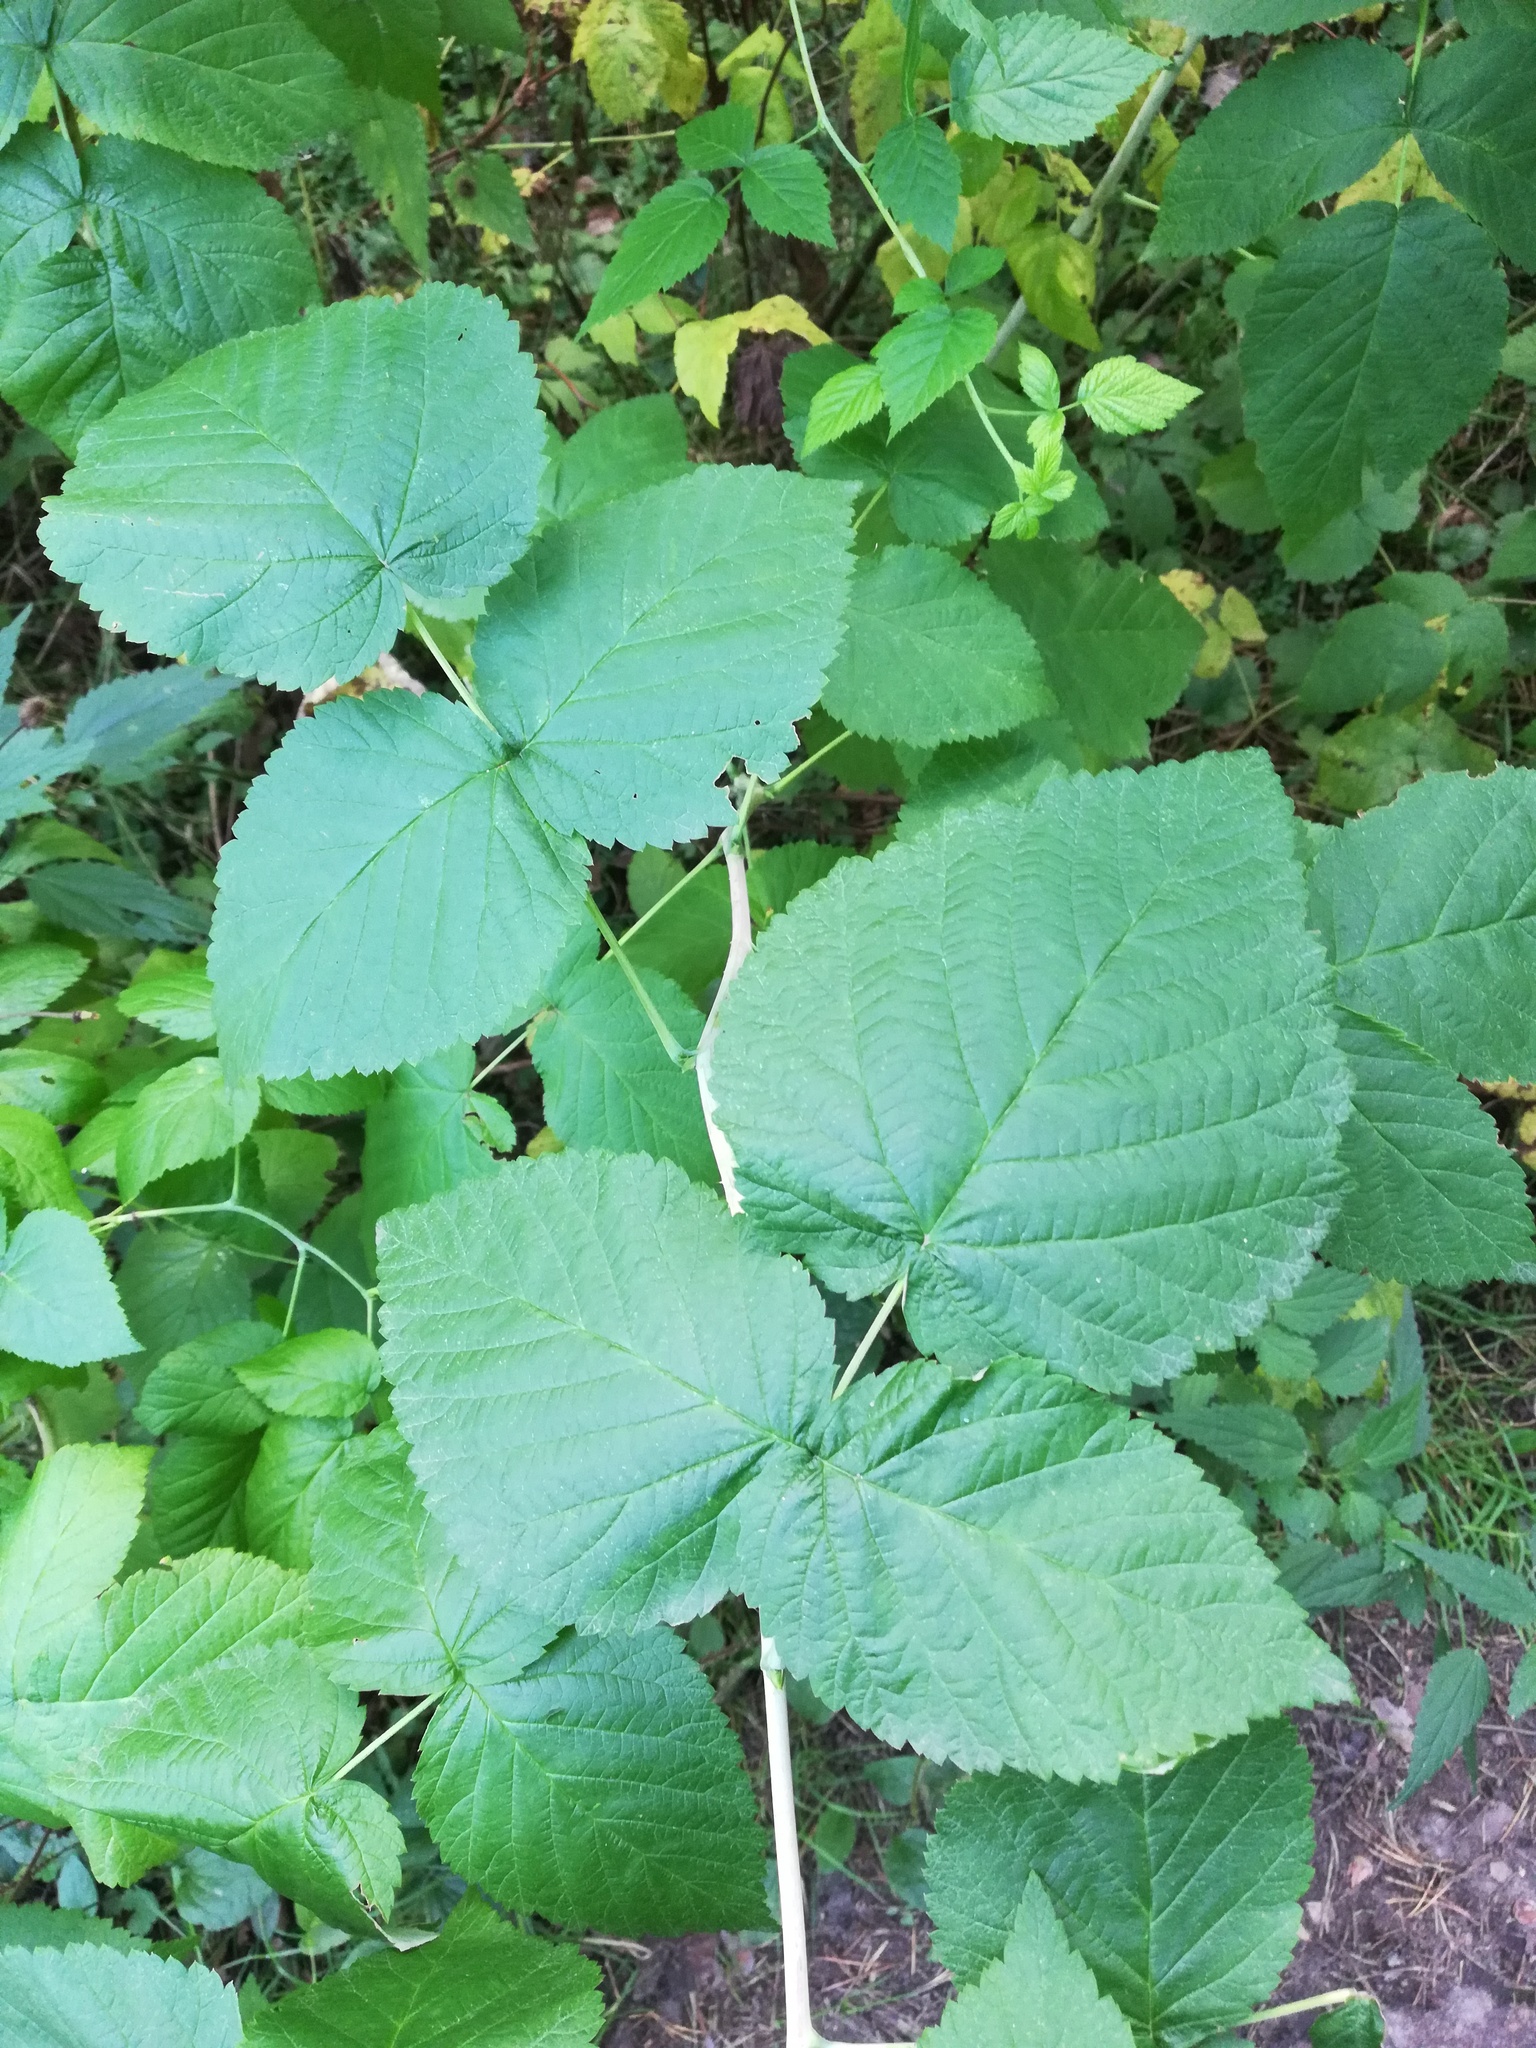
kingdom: Plantae
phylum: Tracheophyta
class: Magnoliopsida
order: Rosales
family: Rosaceae
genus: Rubus
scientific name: Rubus caesius
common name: Dewberry
